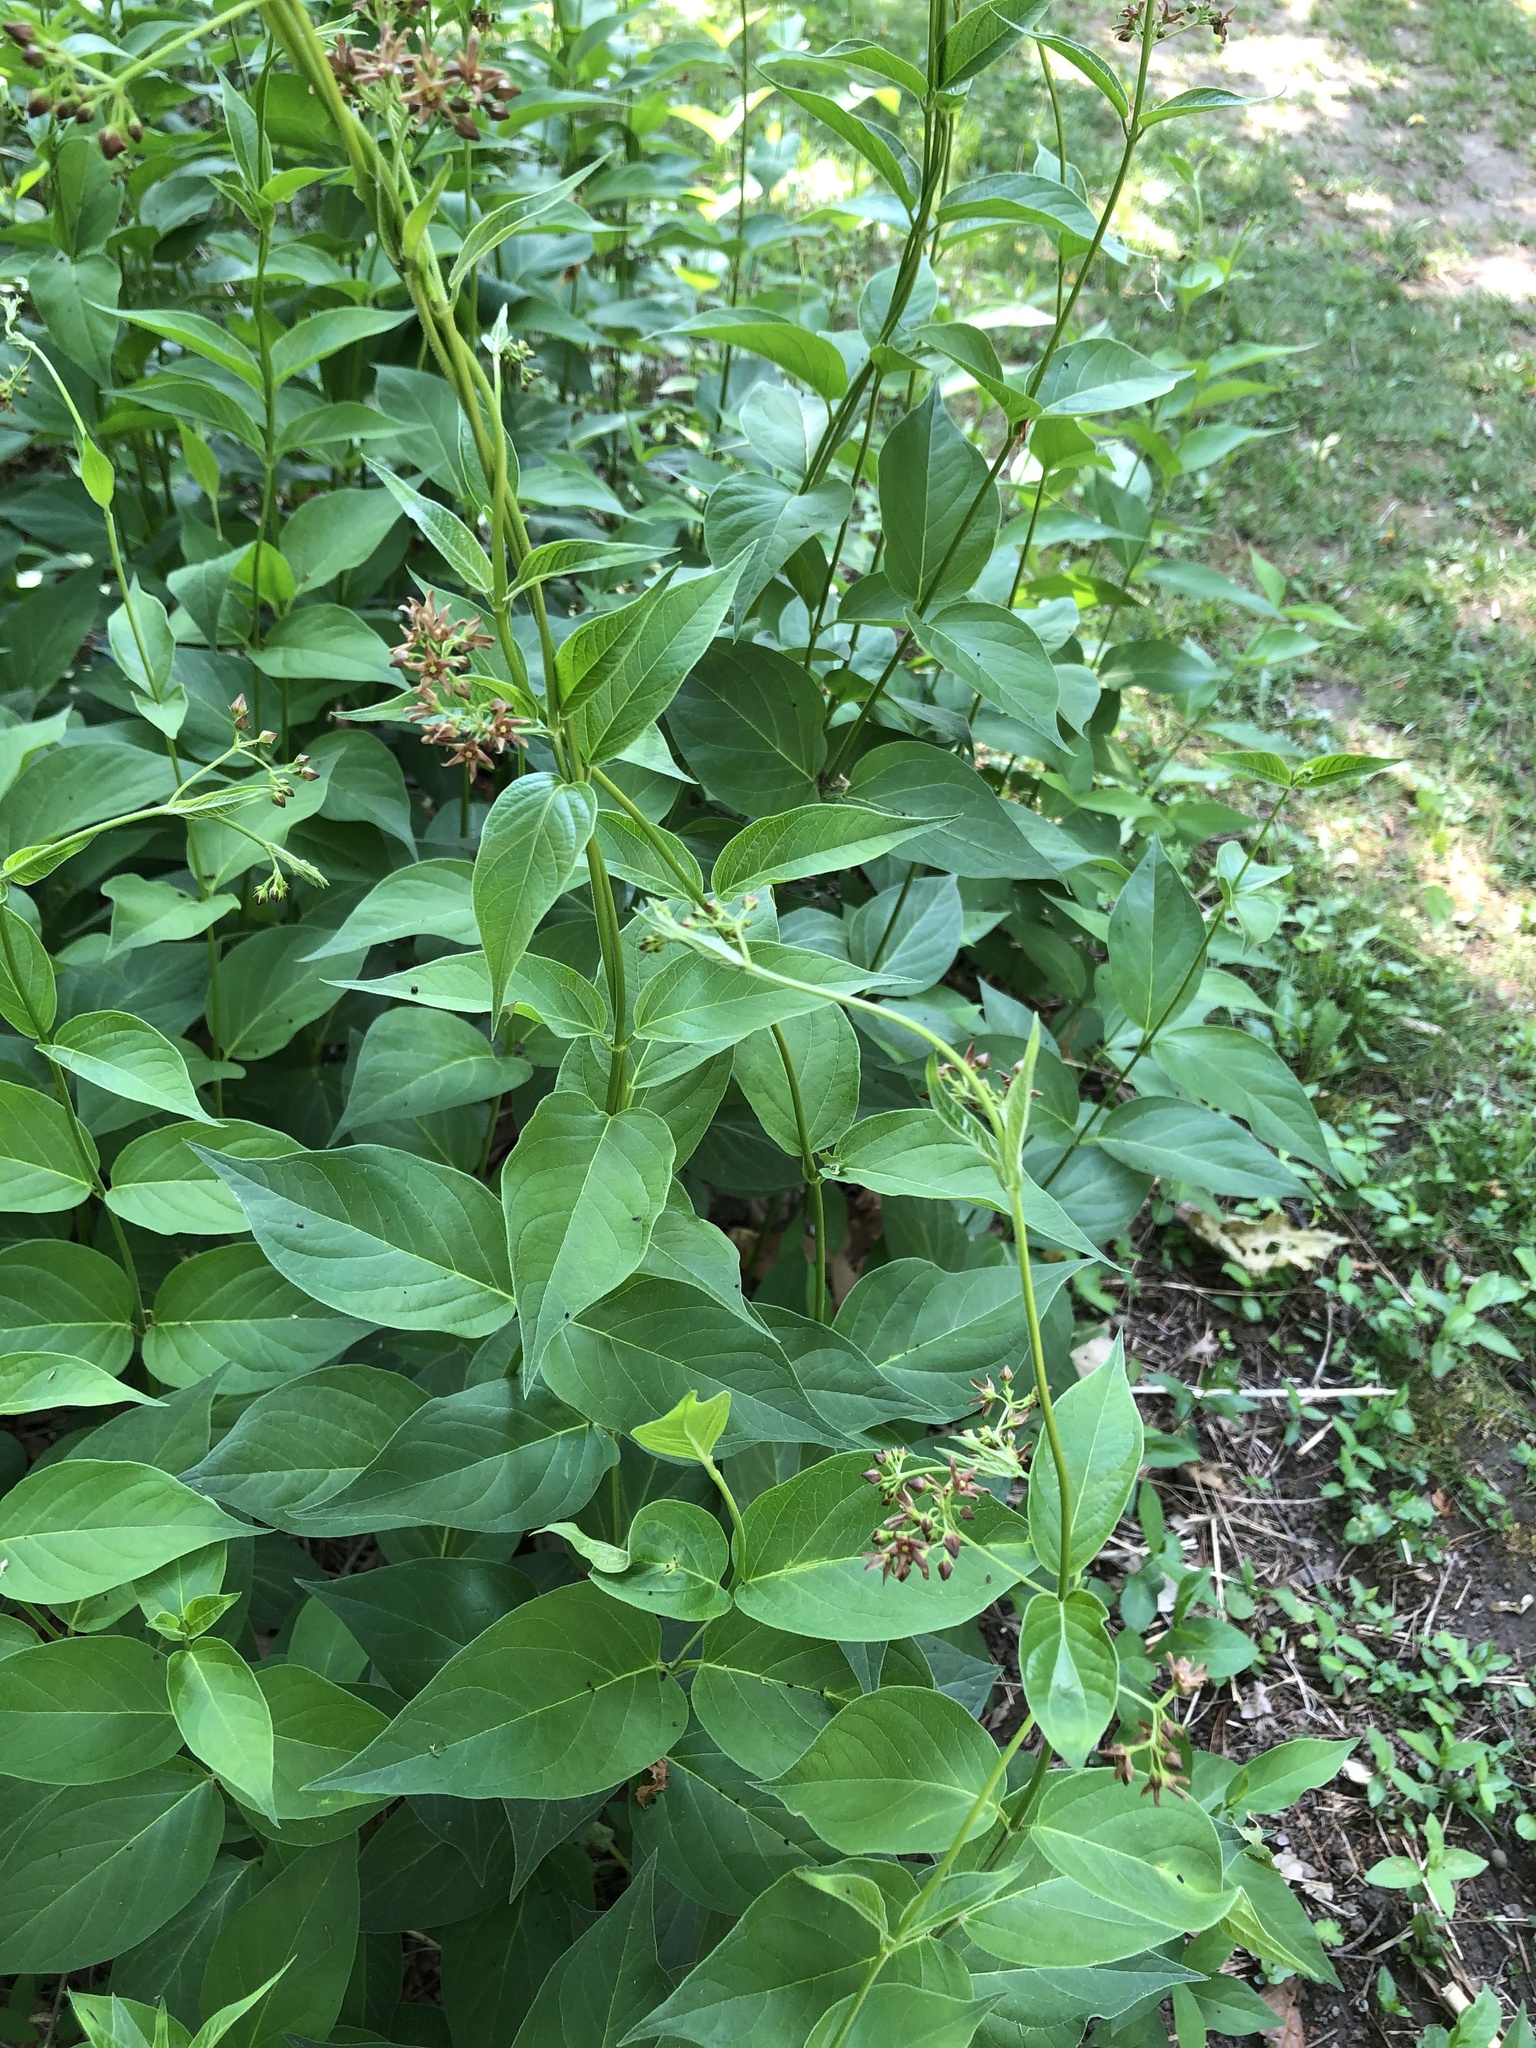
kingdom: Plantae
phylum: Tracheophyta
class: Magnoliopsida
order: Gentianales
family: Apocynaceae
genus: Vincetoxicum
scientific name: Vincetoxicum rossicum
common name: Dog-strangling vine
